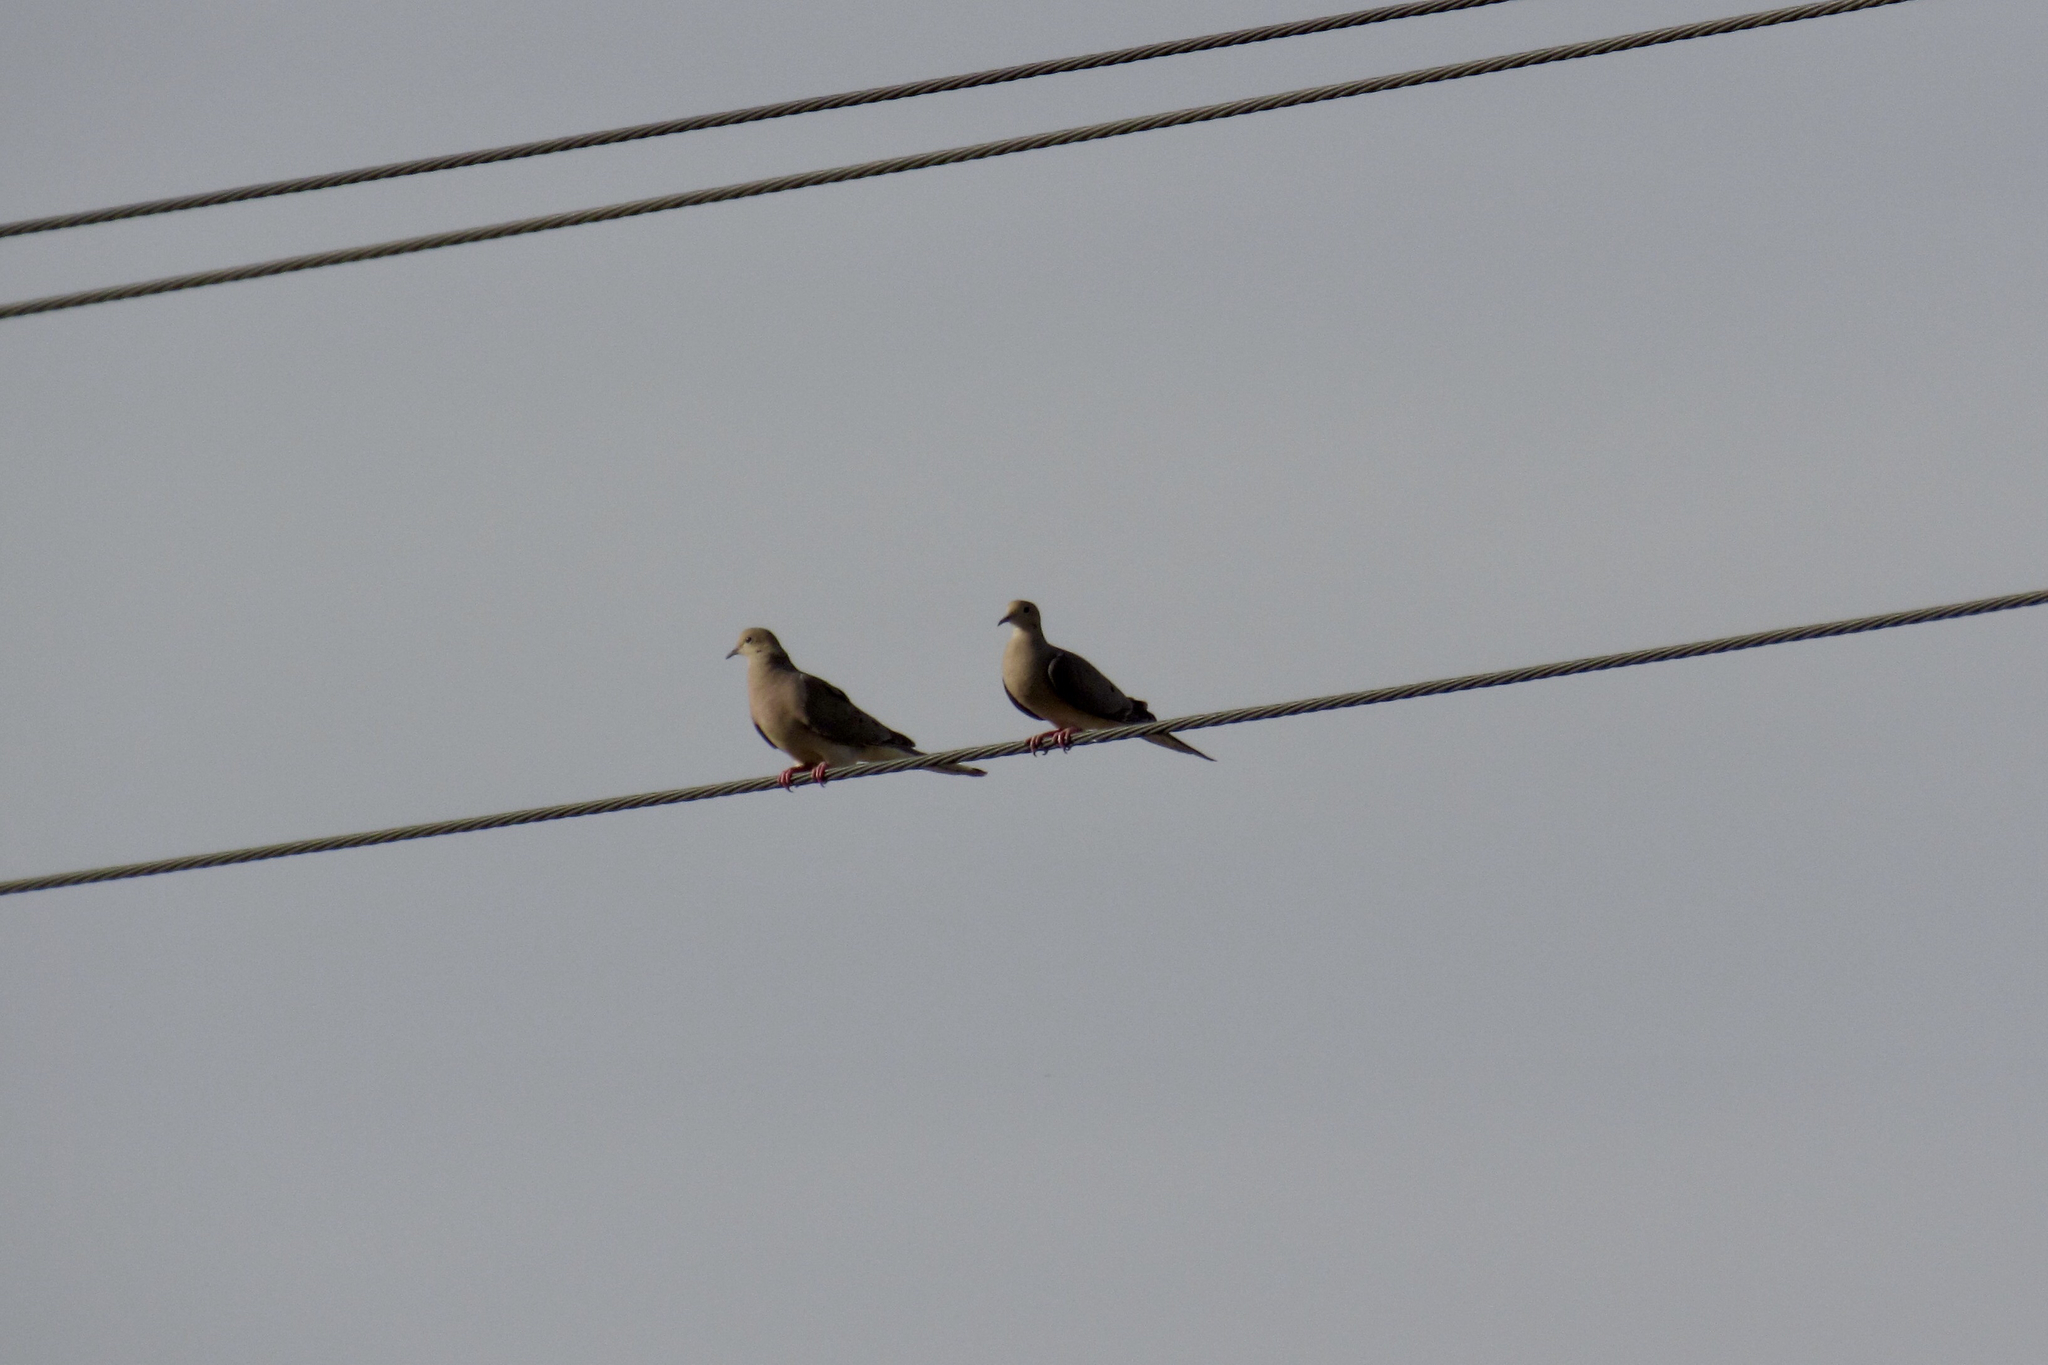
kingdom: Animalia
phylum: Chordata
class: Aves
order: Columbiformes
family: Columbidae
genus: Zenaida
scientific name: Zenaida macroura
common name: Mourning dove
